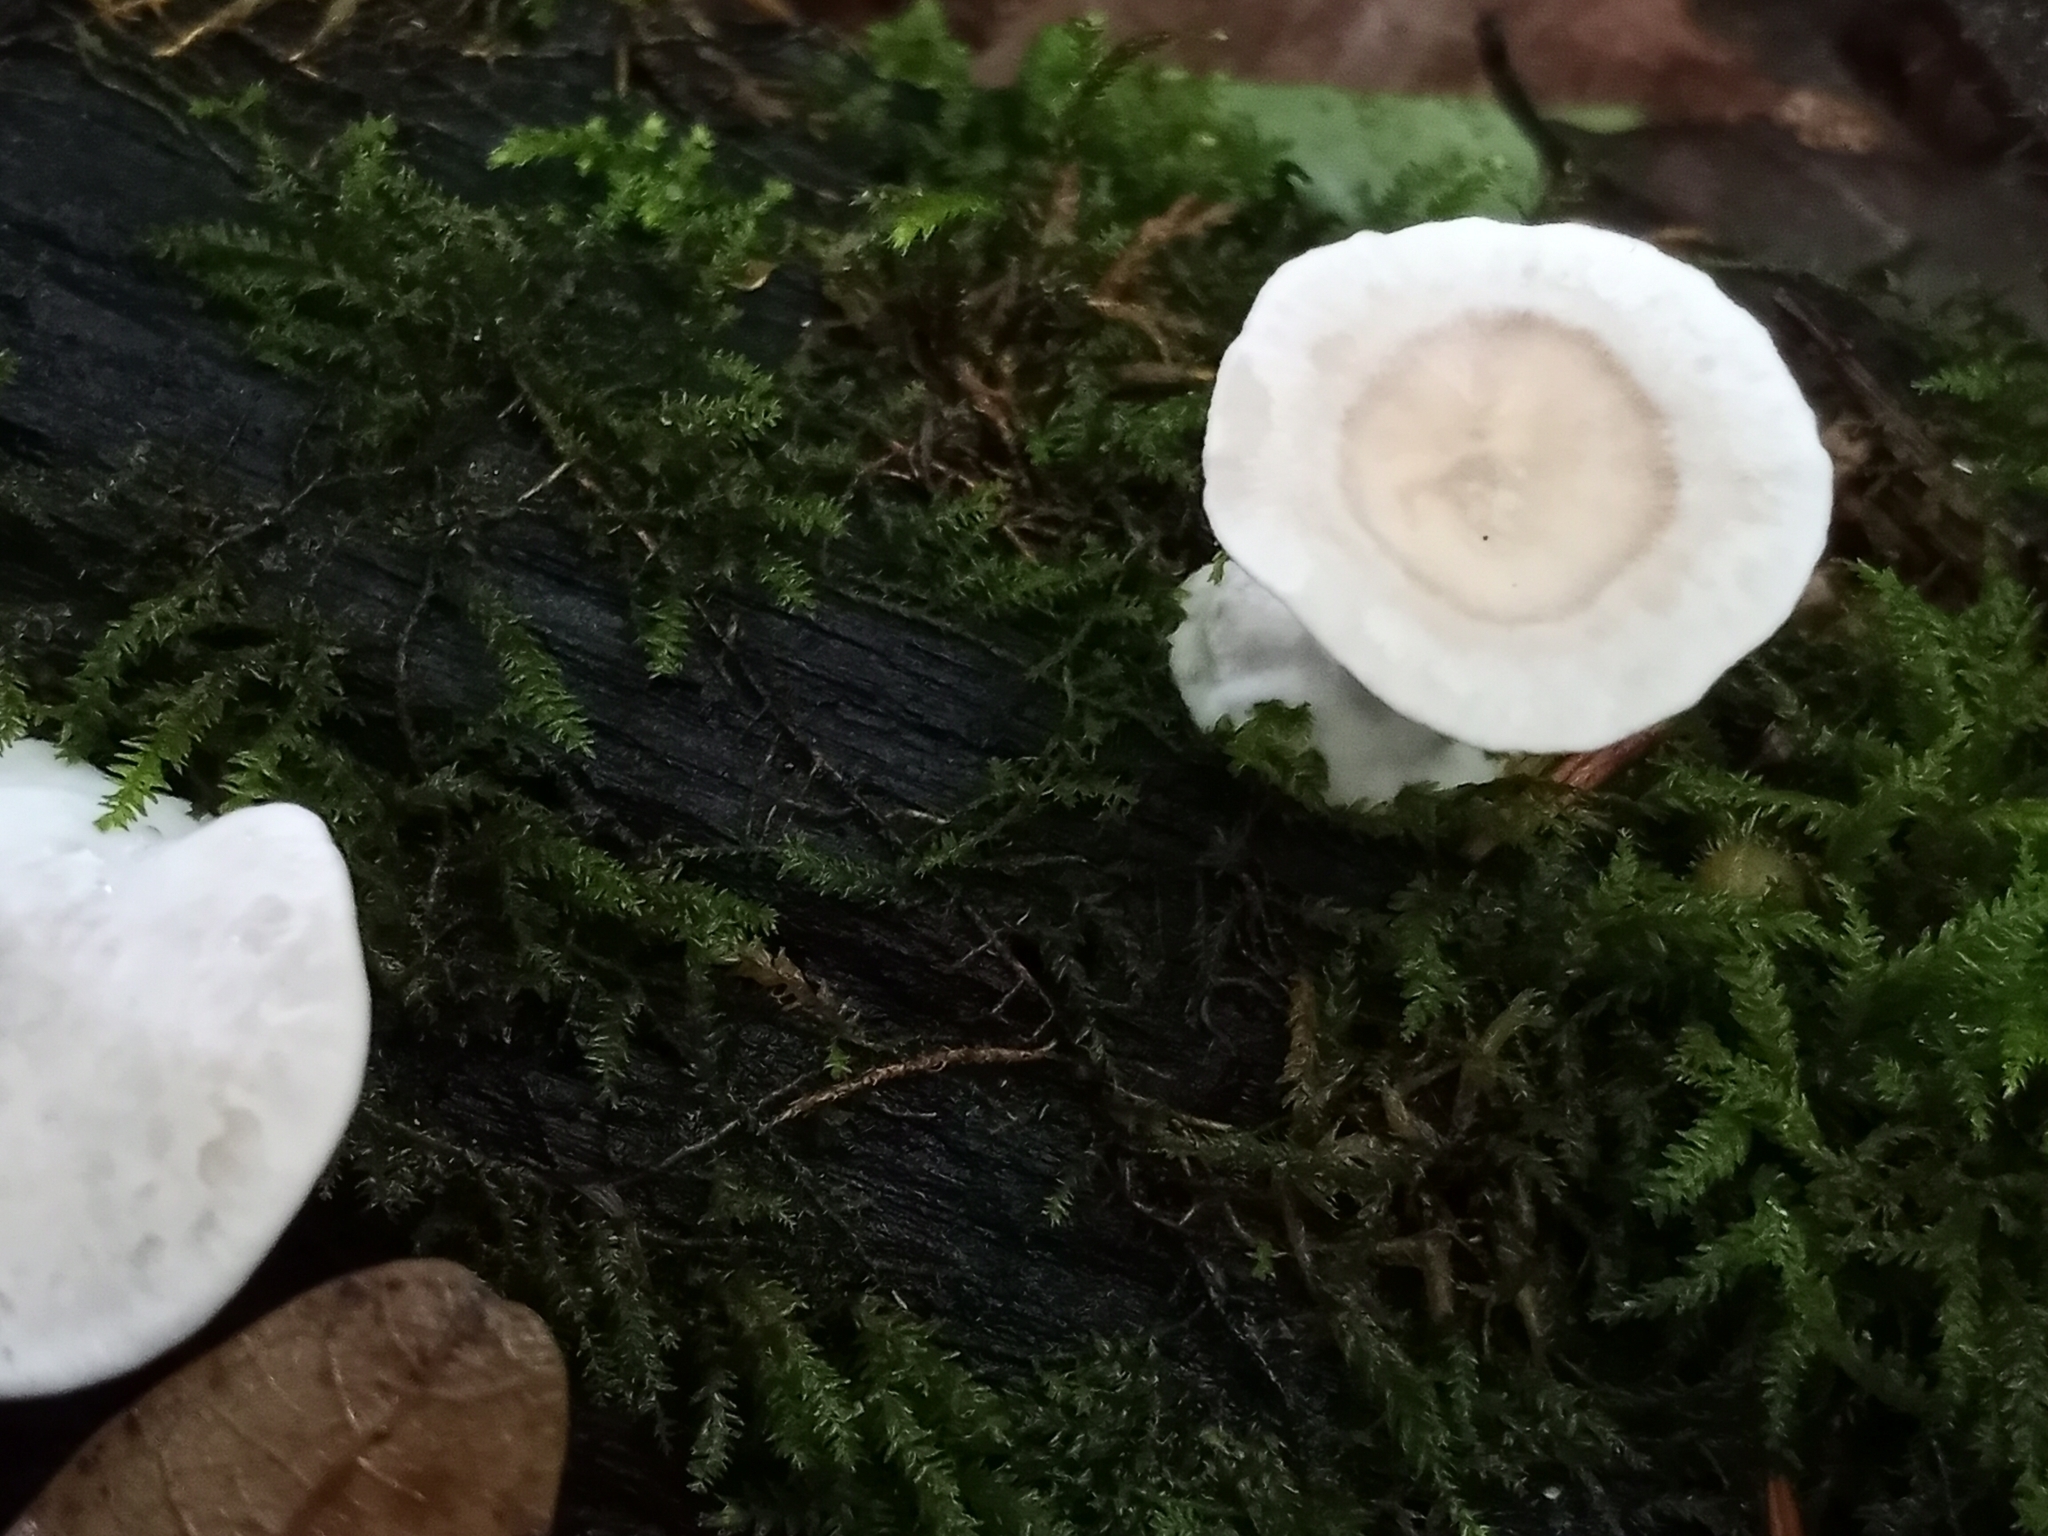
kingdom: Fungi
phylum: Basidiomycota
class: Agaricomycetes
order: Polyporales
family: Steccherinaceae
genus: Mycorrhaphium
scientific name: Mycorrhaphium adustum
